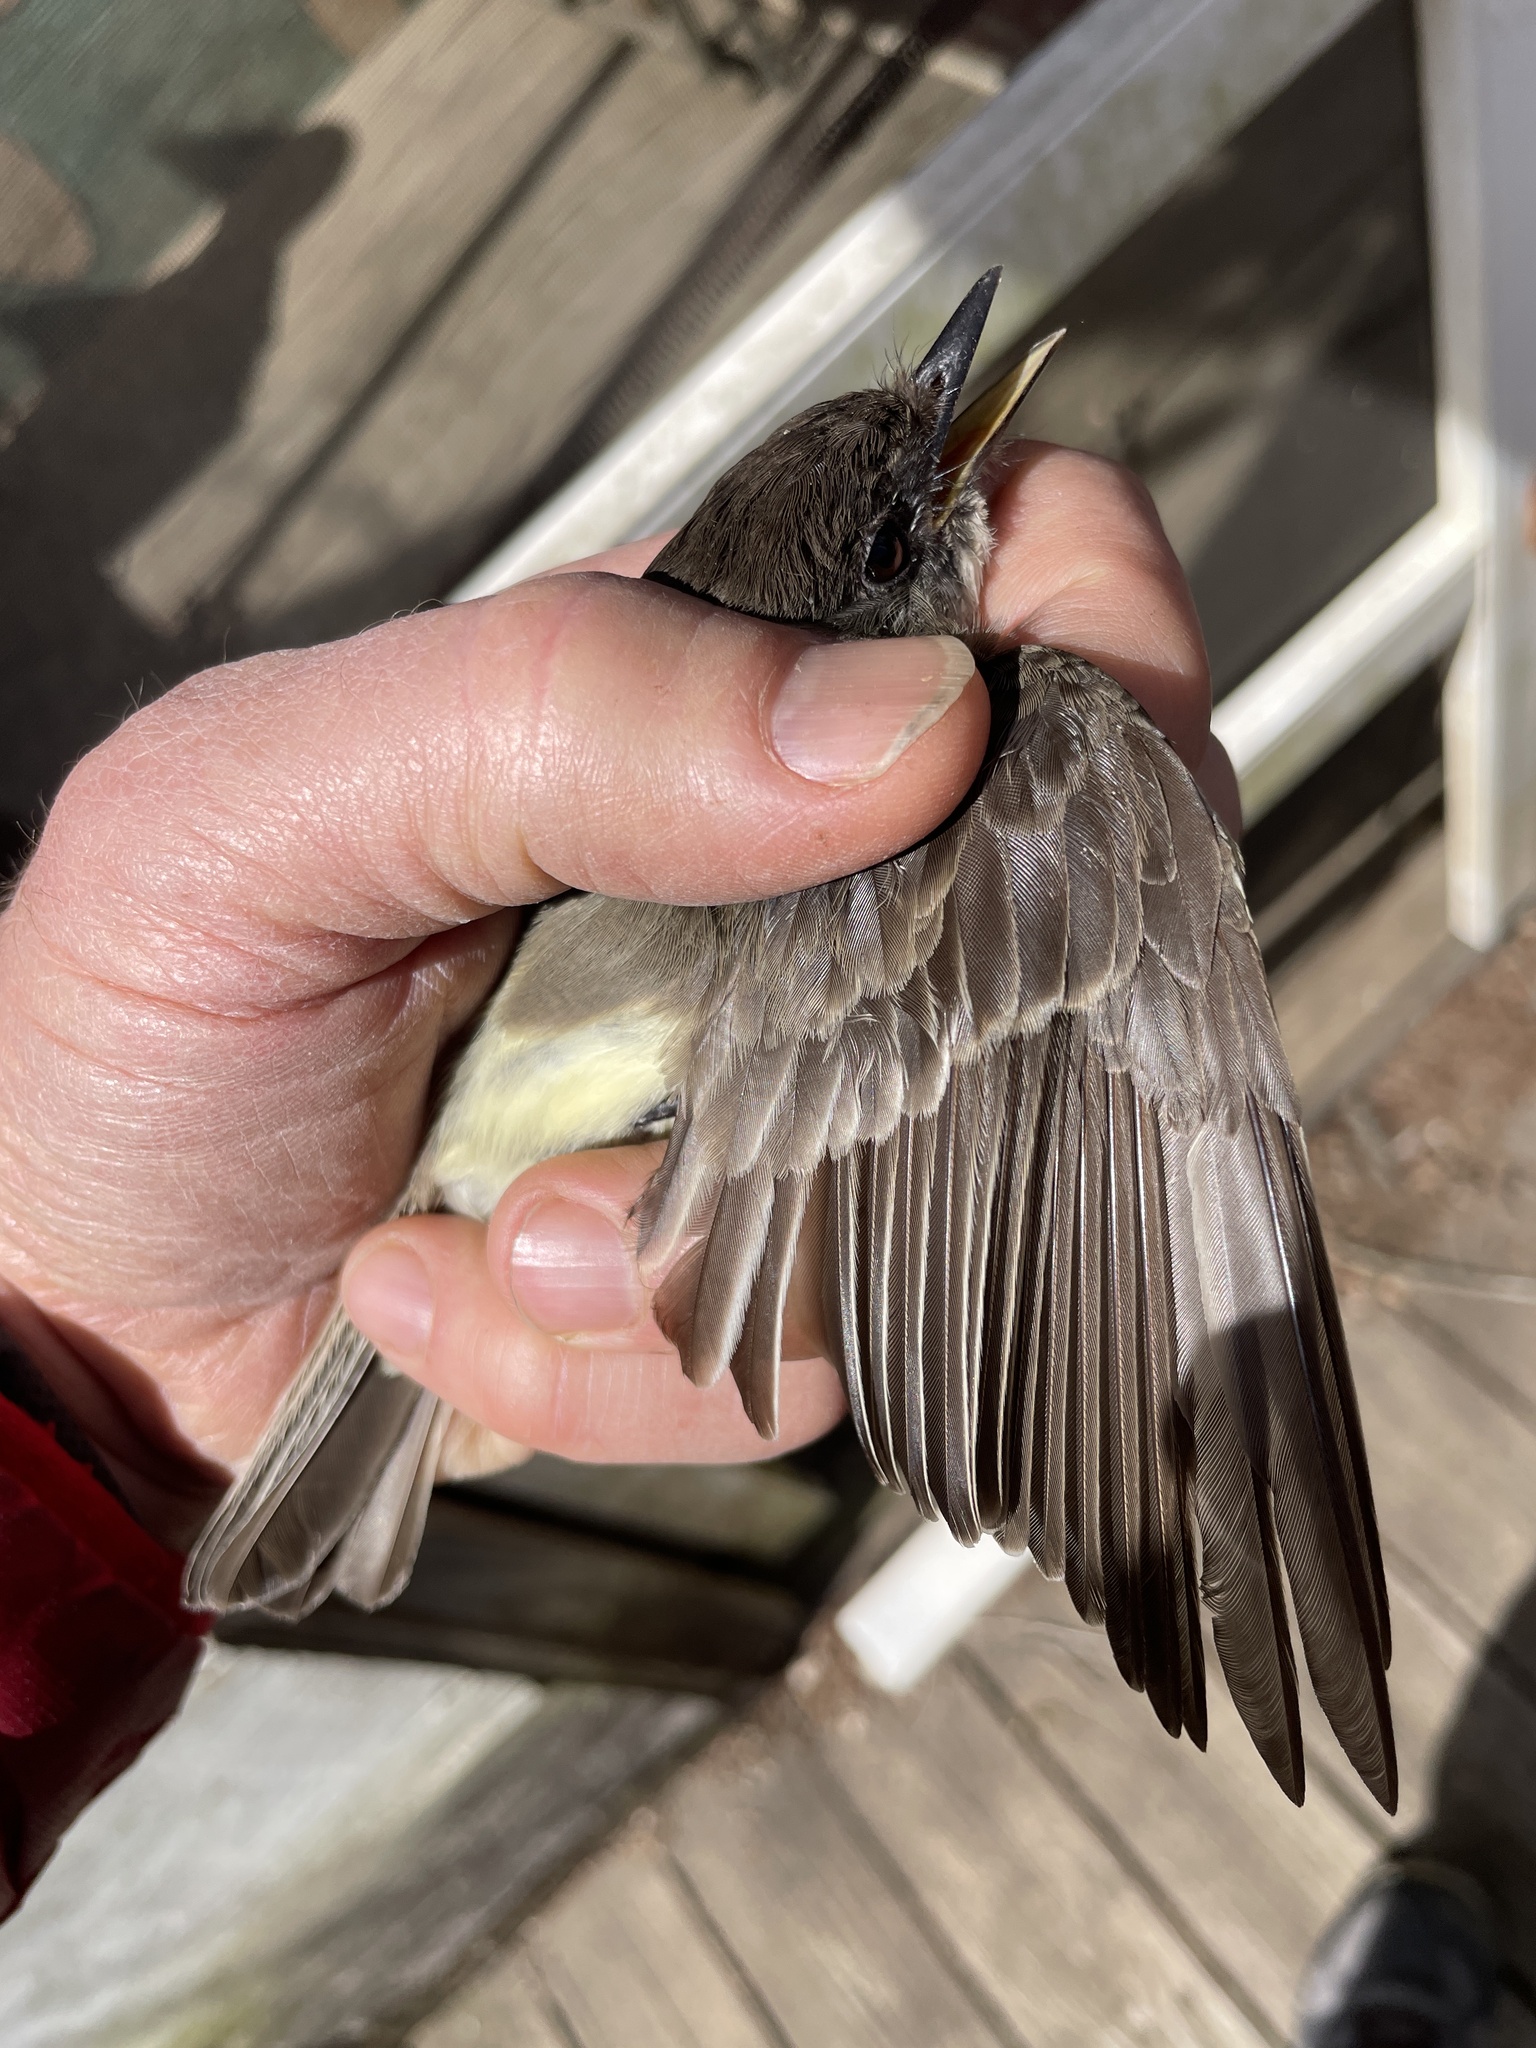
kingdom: Animalia
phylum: Chordata
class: Aves
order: Passeriformes
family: Tyrannidae
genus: Sayornis
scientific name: Sayornis phoebe
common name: Eastern phoebe
